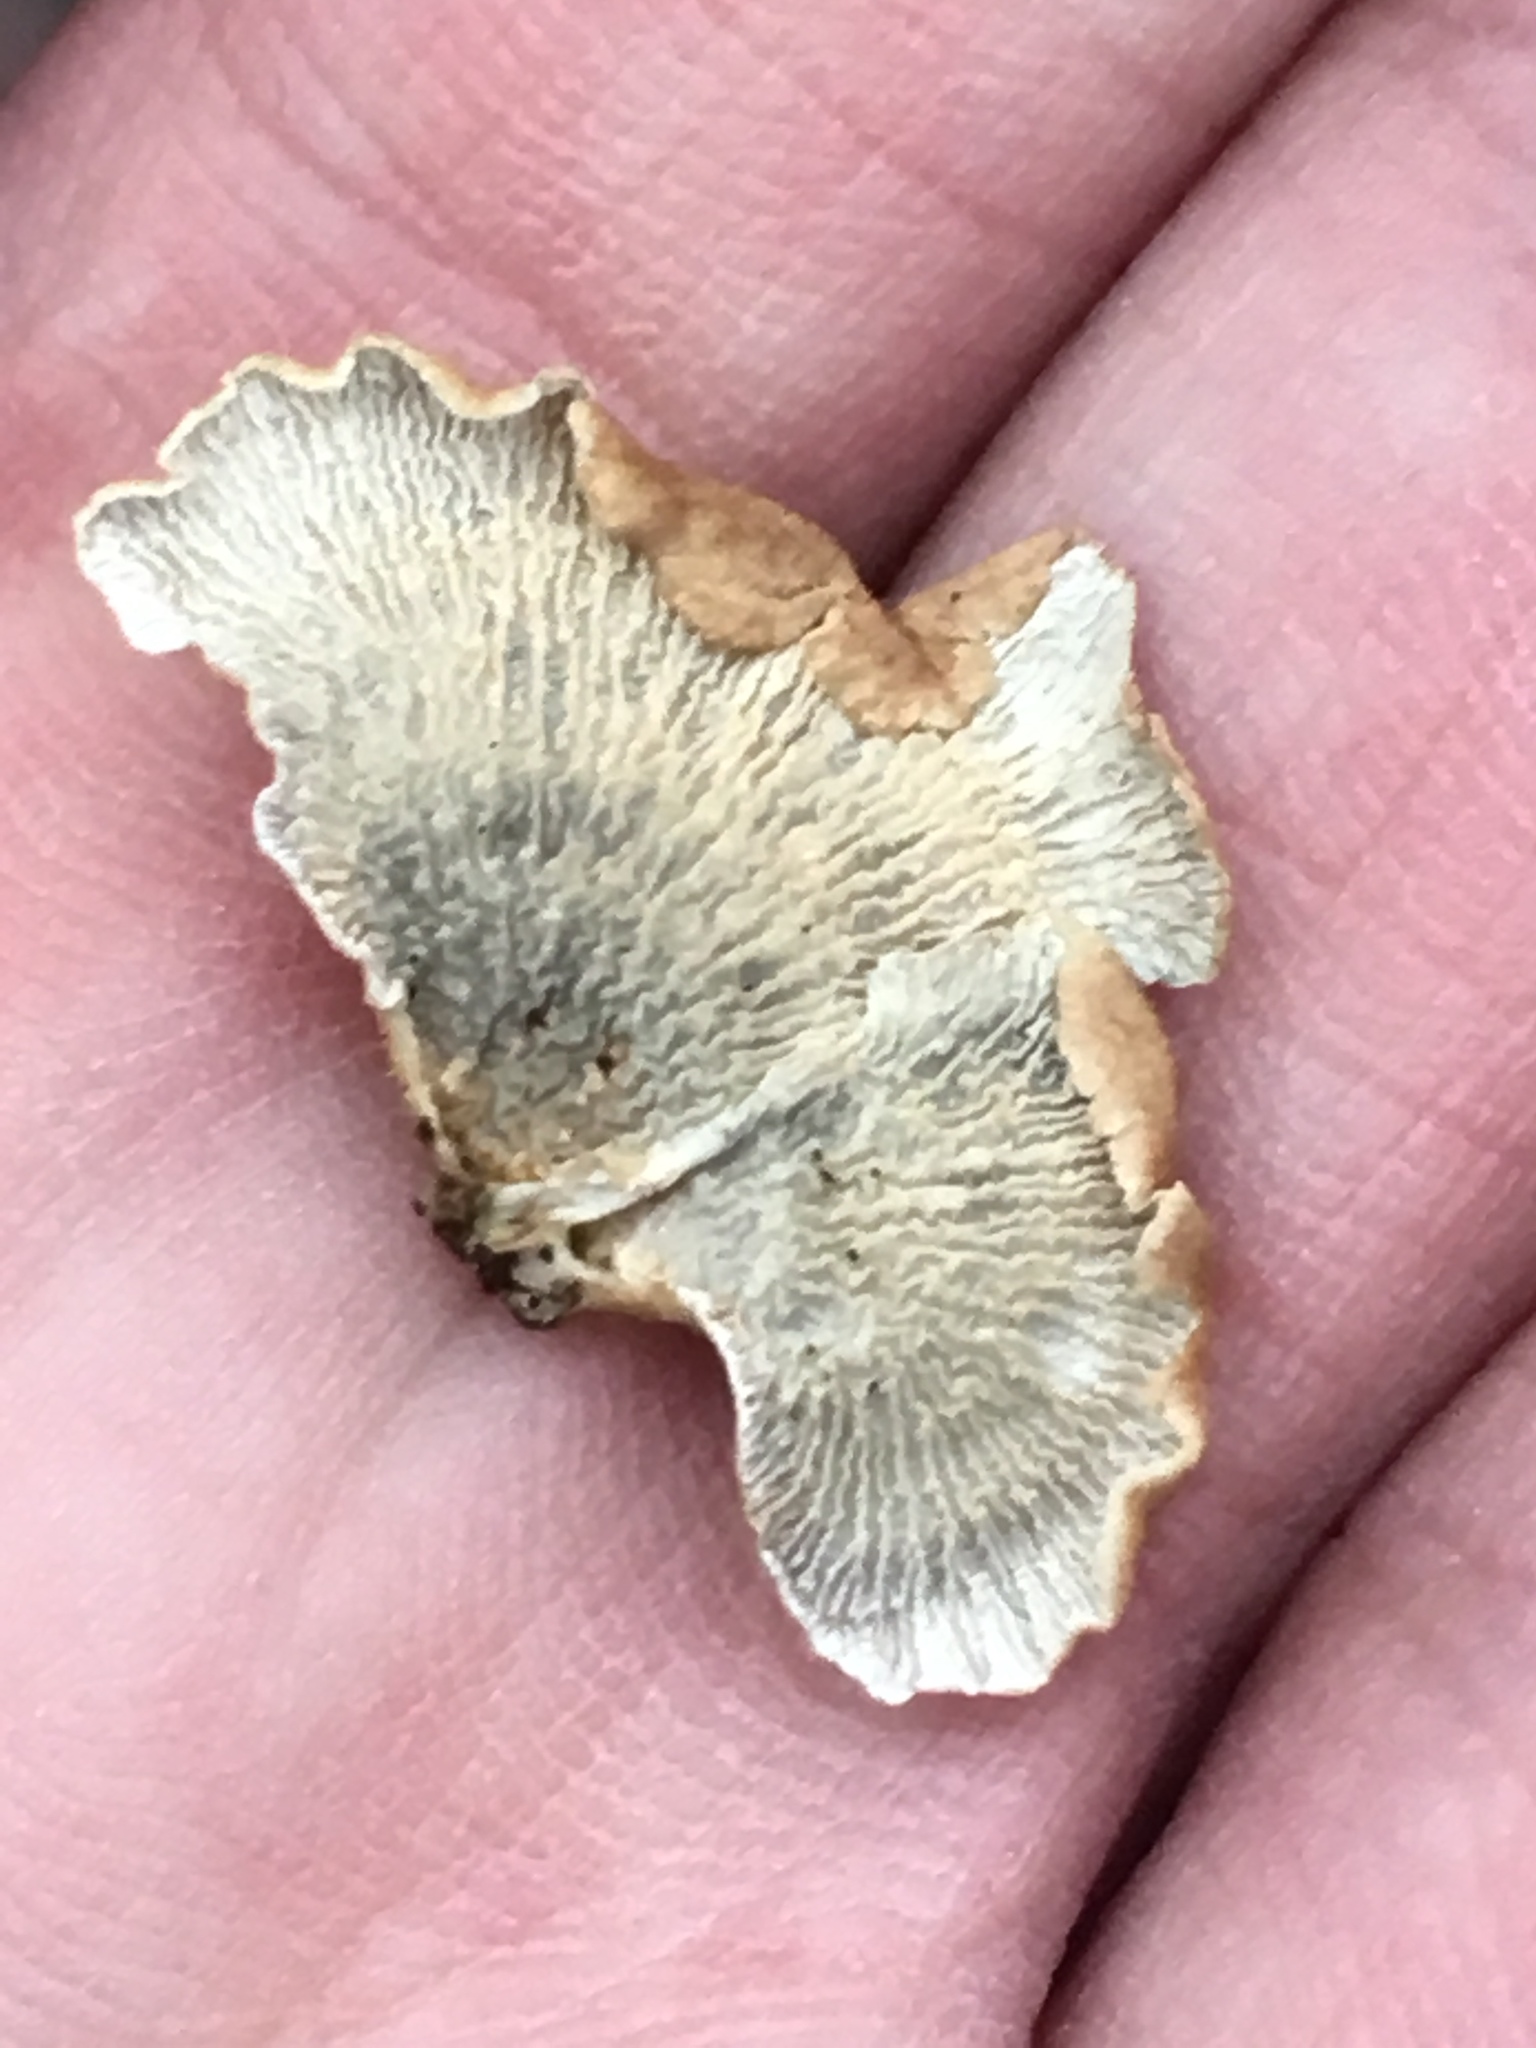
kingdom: Fungi
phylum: Basidiomycota
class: Agaricomycetes
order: Amylocorticiales
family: Amylocorticiaceae
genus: Plicaturopsis
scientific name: Plicaturopsis crispa
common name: Crimped gill
